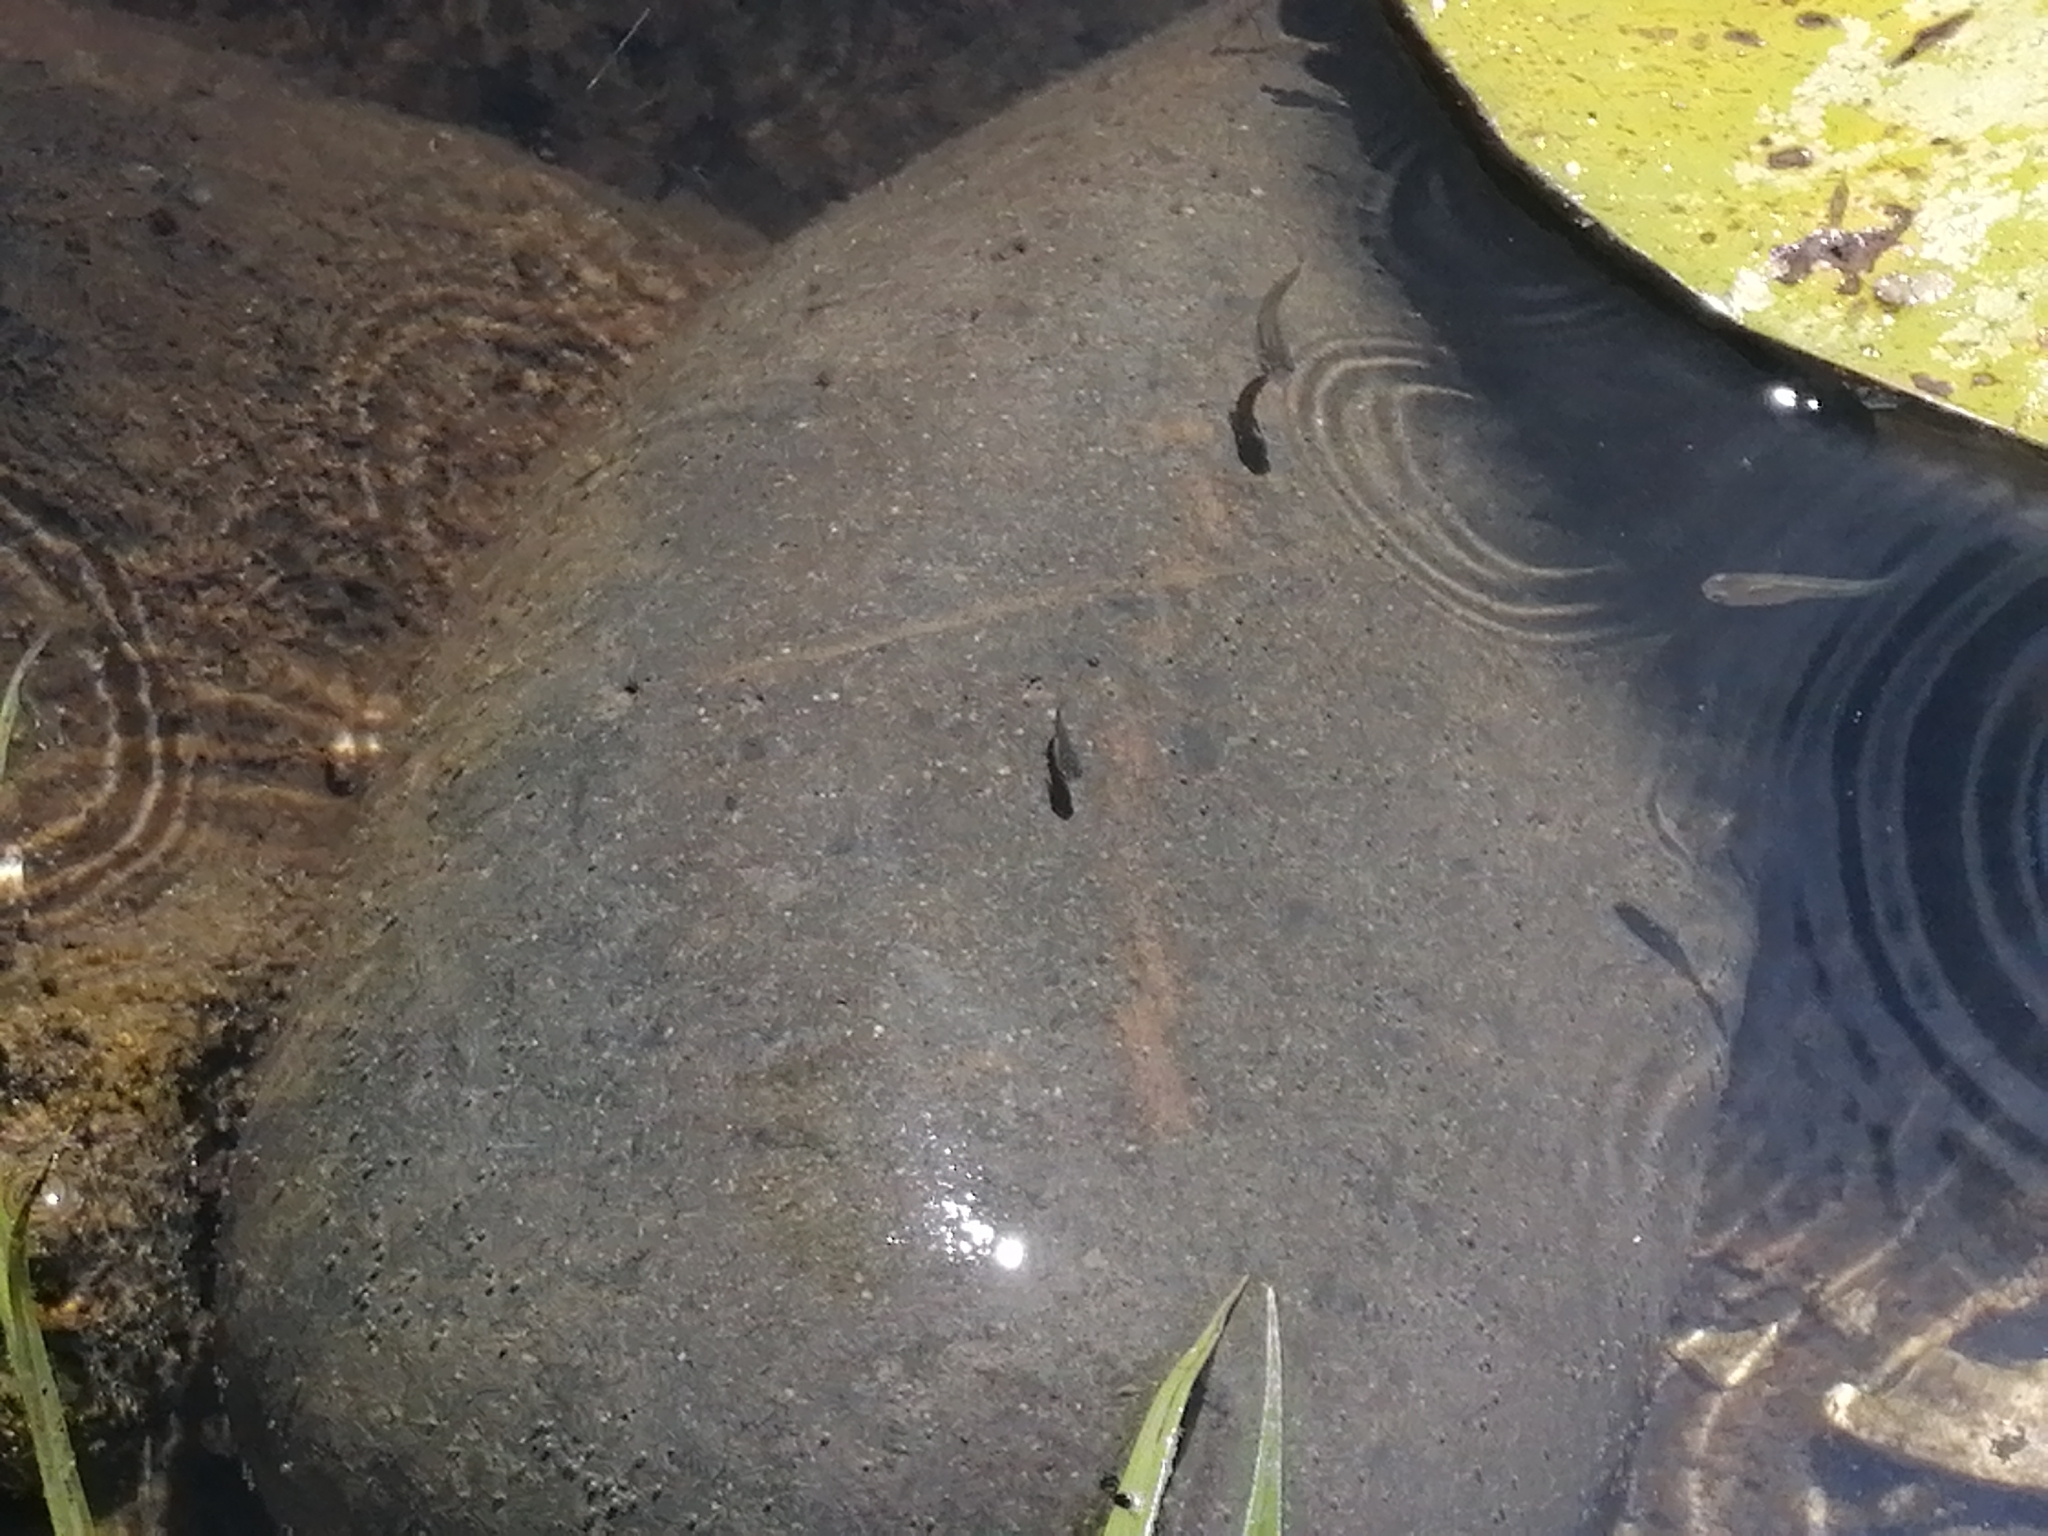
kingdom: Animalia
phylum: Chordata
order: Cyprinodontiformes
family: Poeciliidae
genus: Gambusia
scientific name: Gambusia affinis
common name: Mosquitofish
